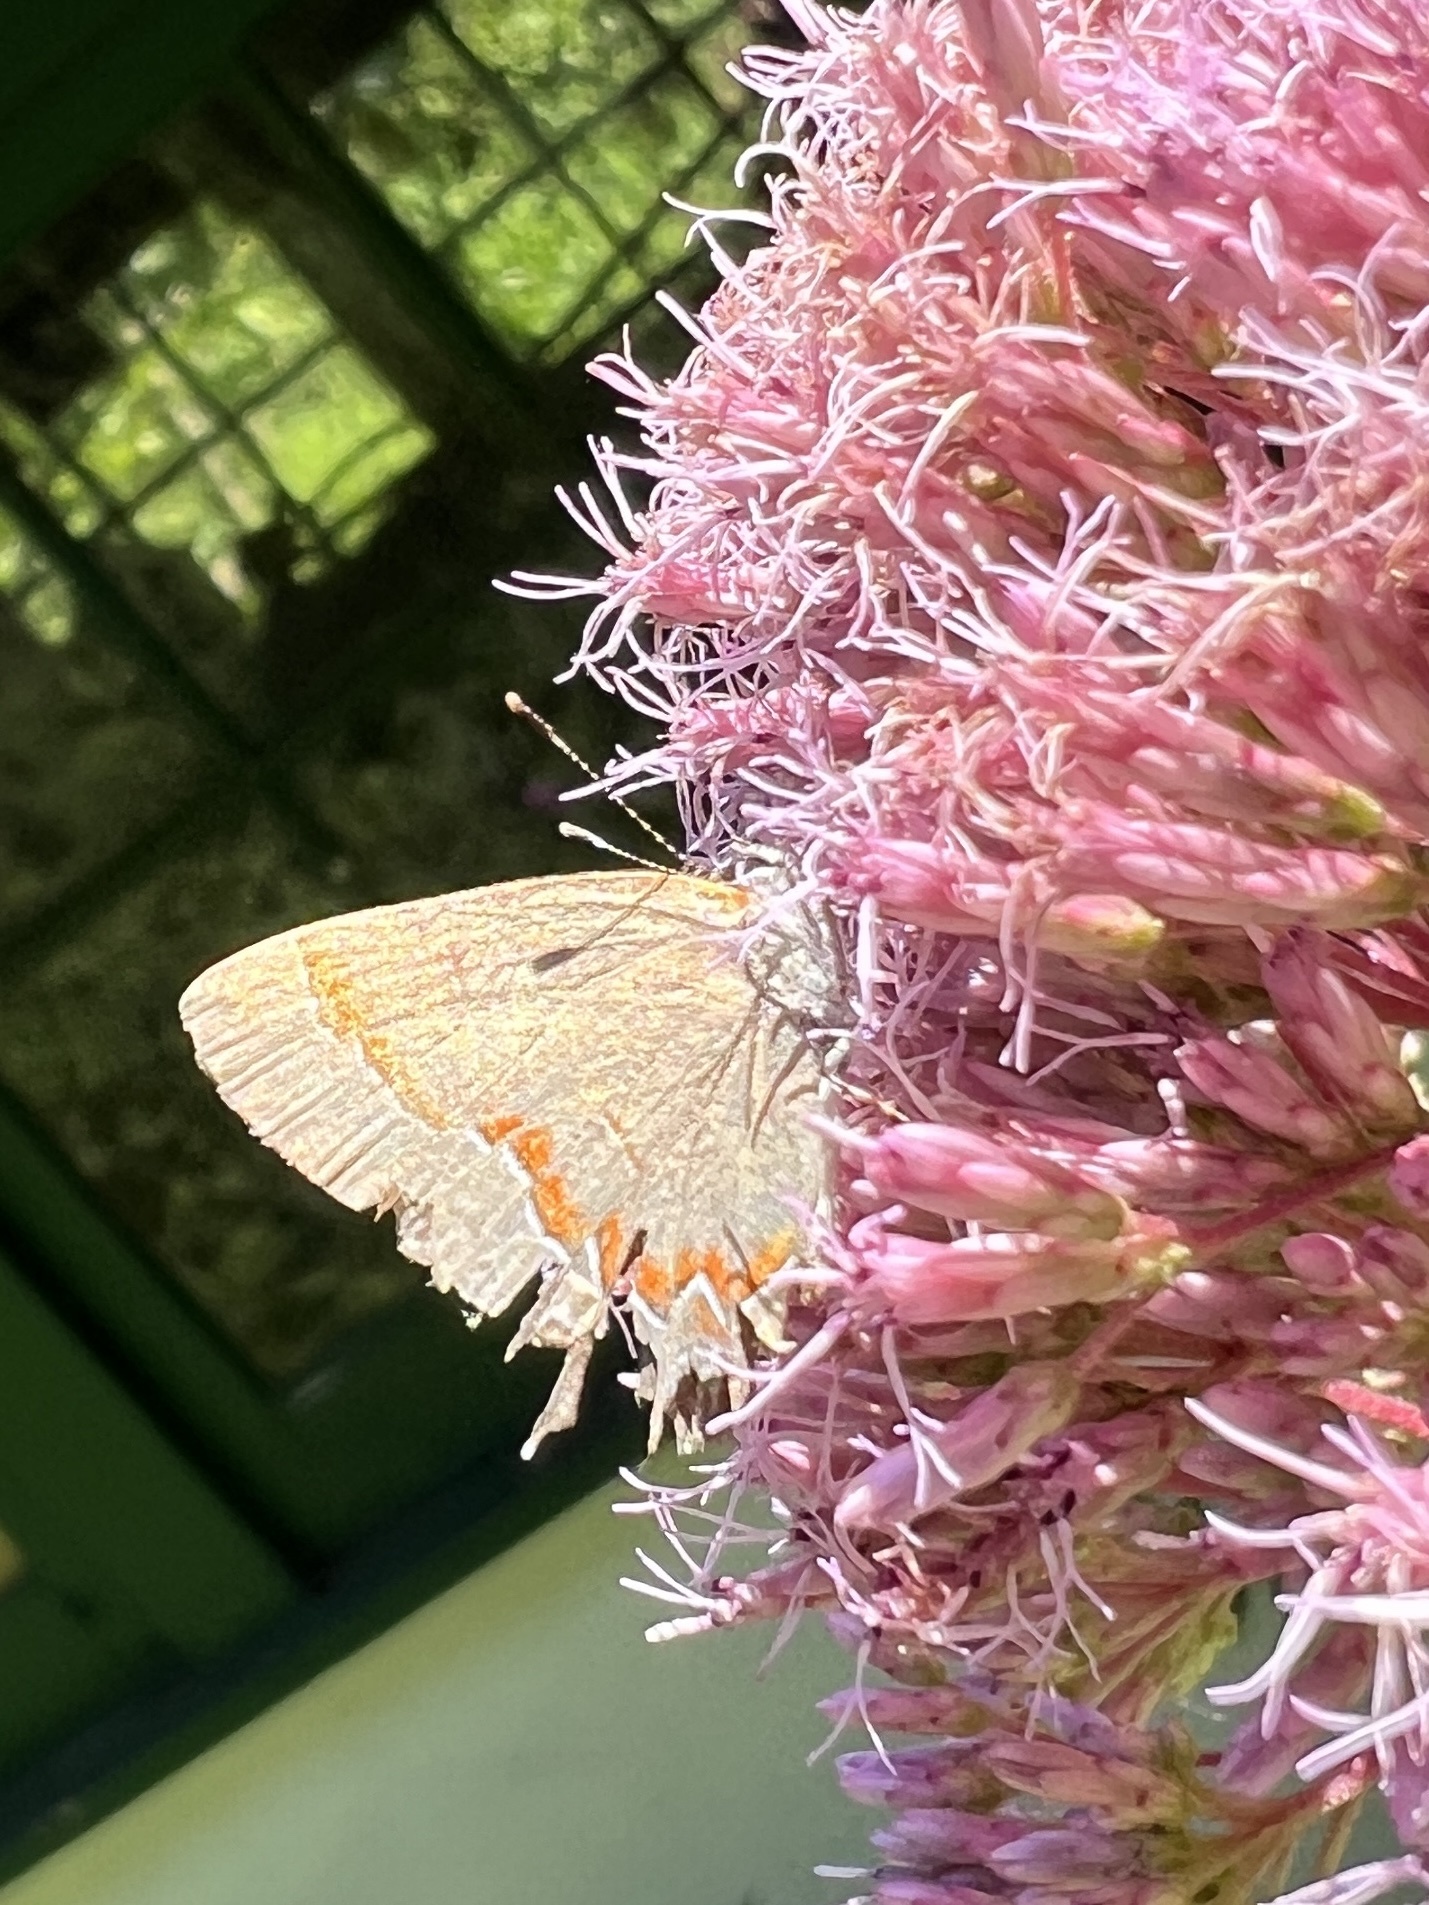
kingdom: Animalia
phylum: Arthropoda
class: Insecta
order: Lepidoptera
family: Lycaenidae
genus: Calycopis
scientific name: Calycopis cecrops
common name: Red-banded hairstreak
